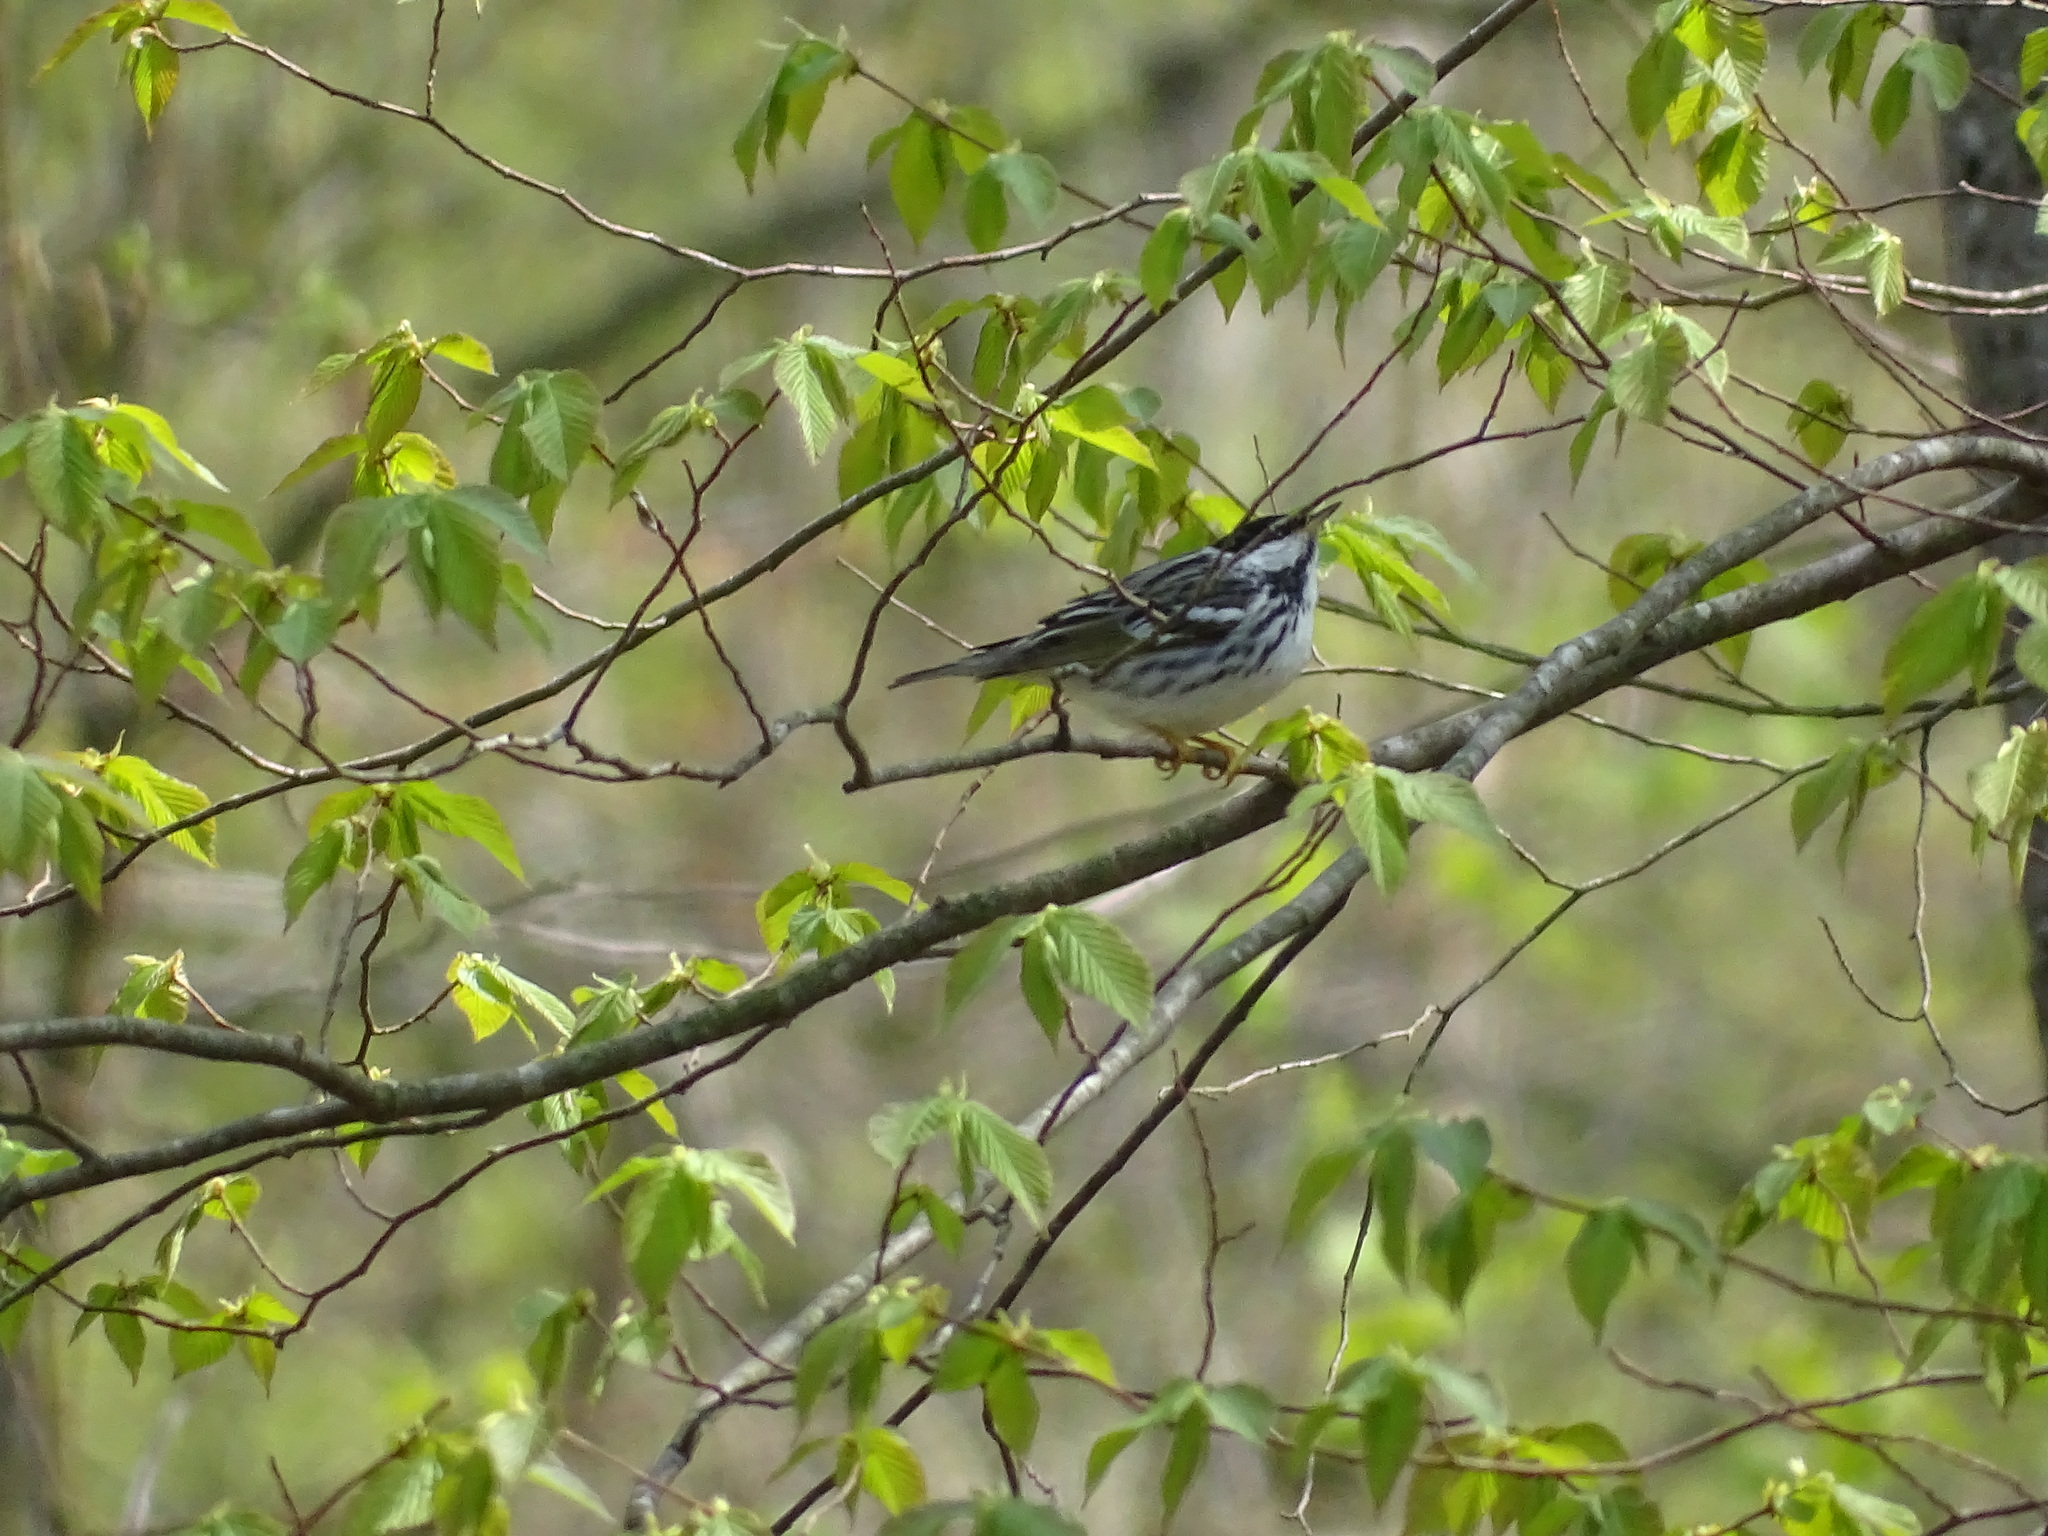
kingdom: Animalia
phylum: Chordata
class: Aves
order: Passeriformes
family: Parulidae
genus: Setophaga
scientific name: Setophaga striata
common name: Blackpoll warbler
